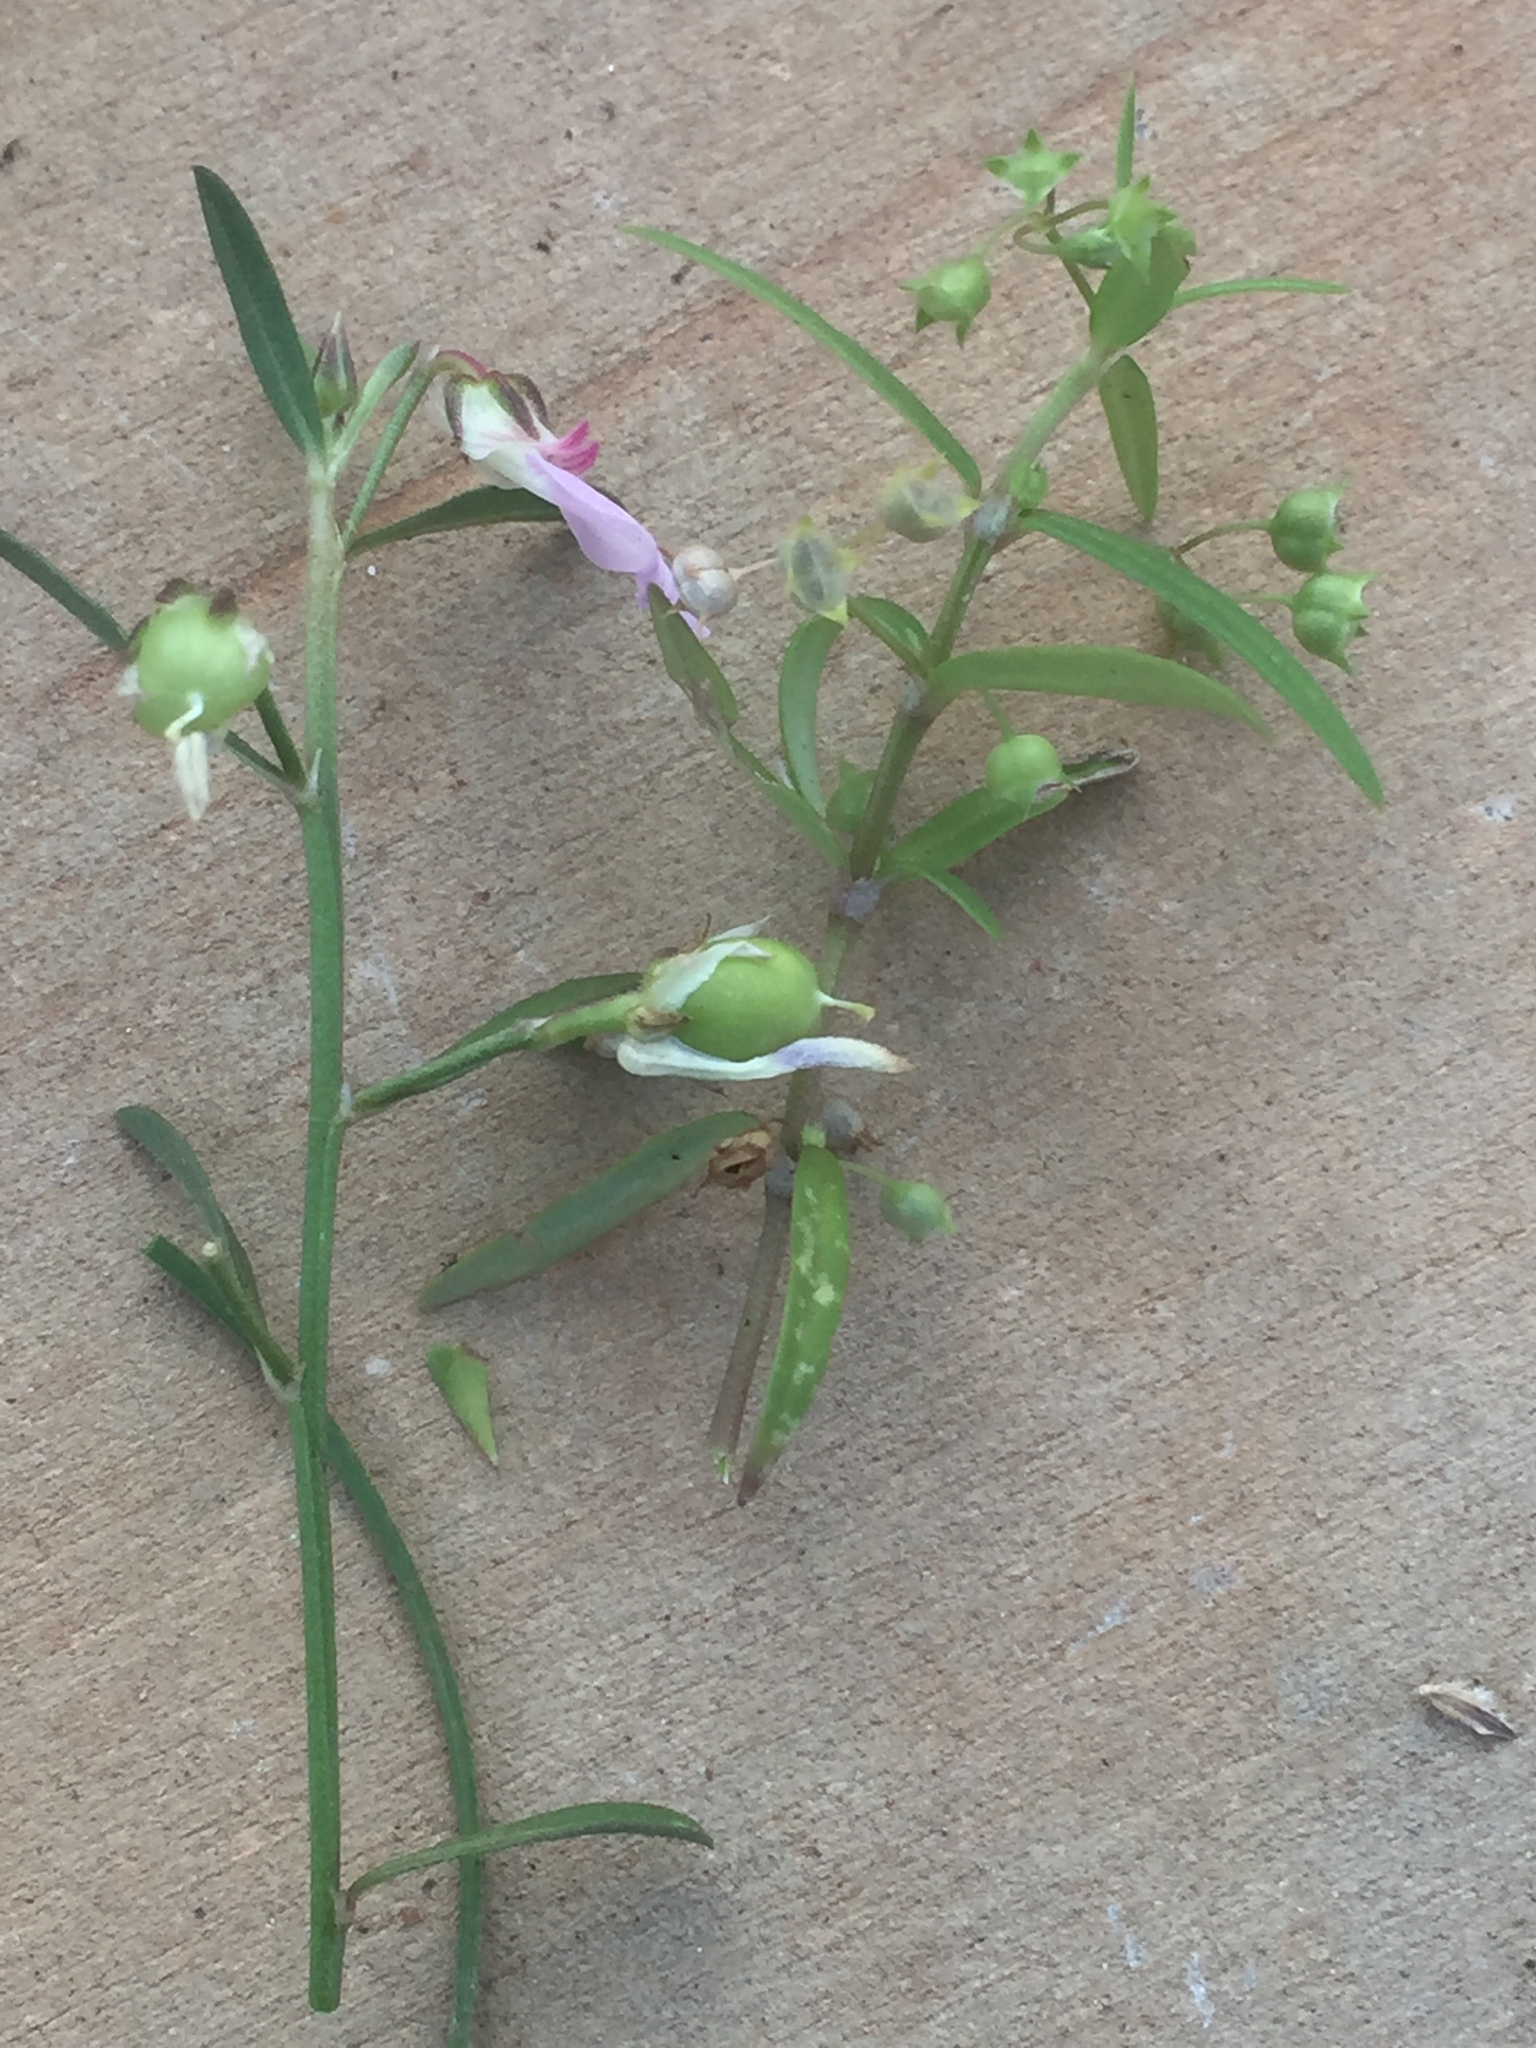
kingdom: Plantae
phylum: Tracheophyta
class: Magnoliopsida
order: Malpighiales
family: Violaceae
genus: Pigea
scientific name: Pigea enneasperma
